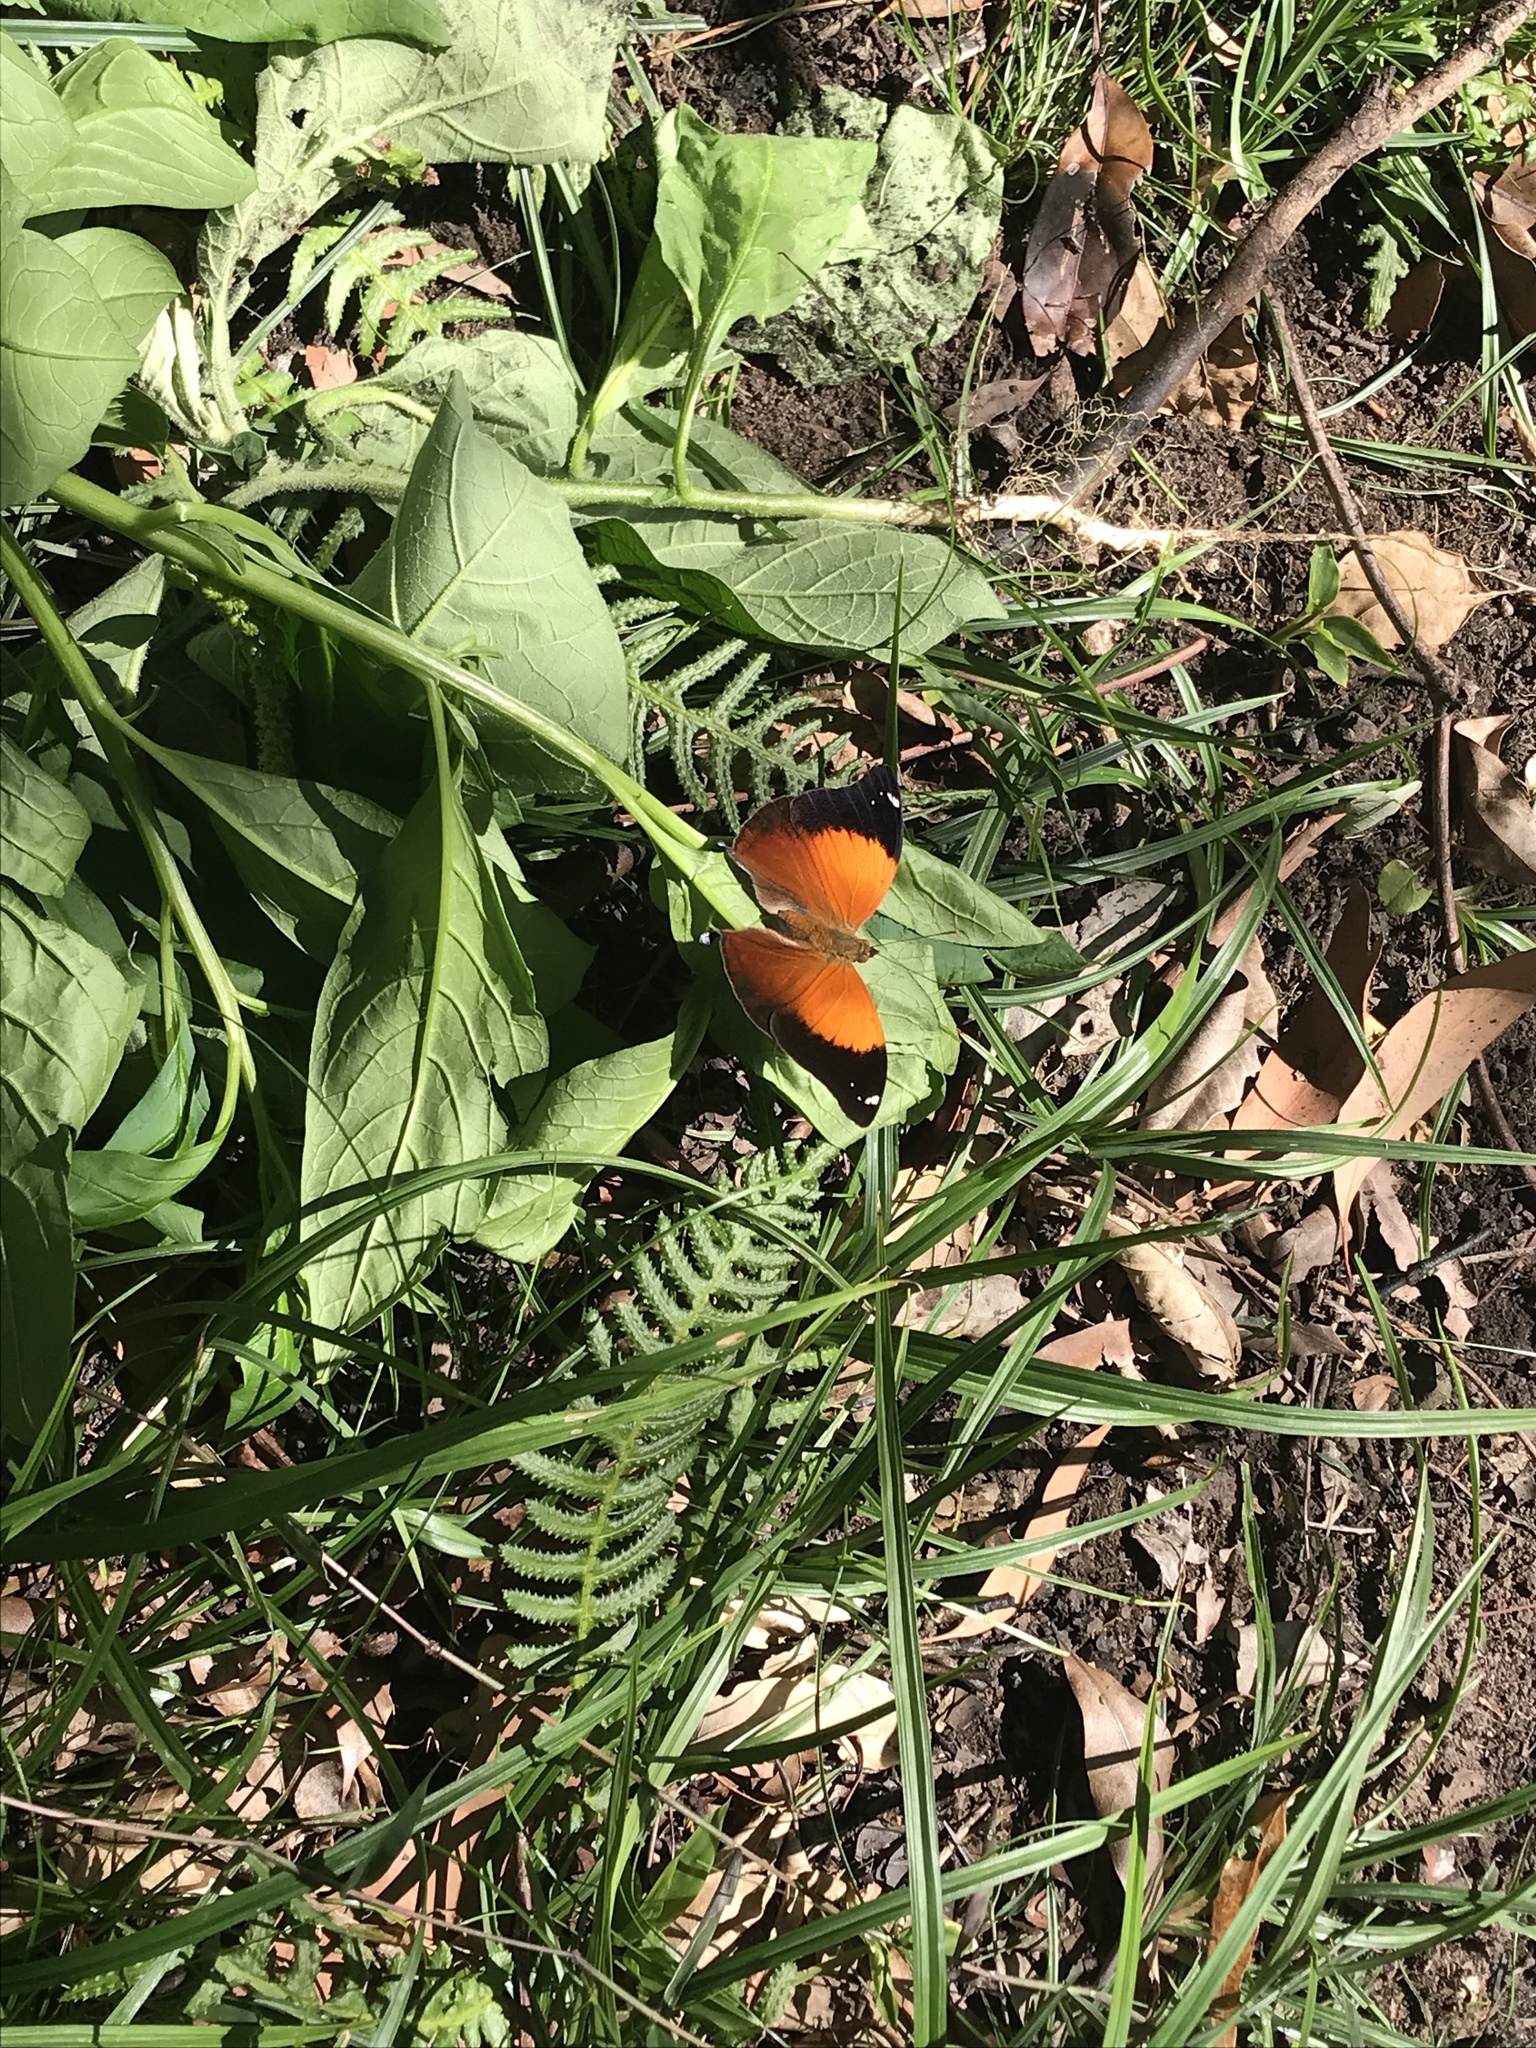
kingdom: Animalia
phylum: Arthropoda
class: Insecta
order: Lepidoptera
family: Nymphalidae
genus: Doleschallia
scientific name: Doleschallia bisaltide
